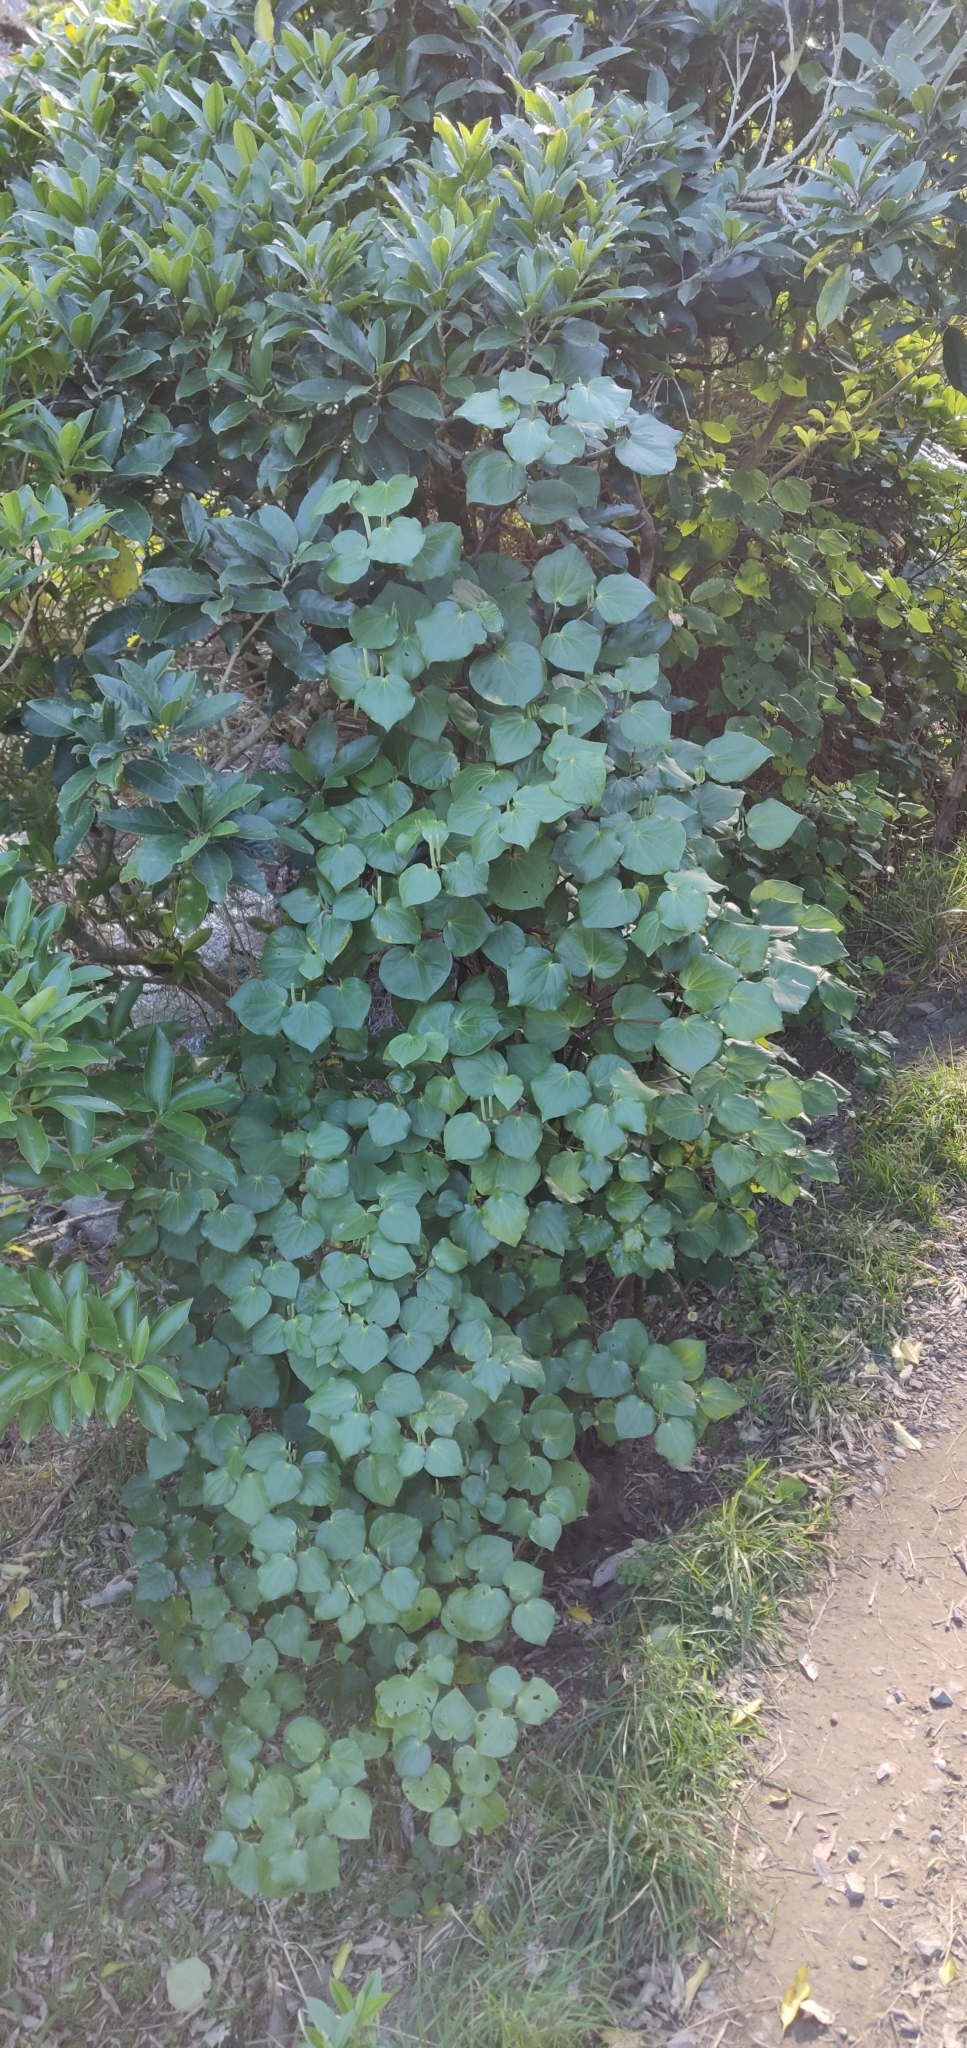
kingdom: Plantae
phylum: Tracheophyta
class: Magnoliopsida
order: Piperales
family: Piperaceae
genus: Macropiper
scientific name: Macropiper excelsum
